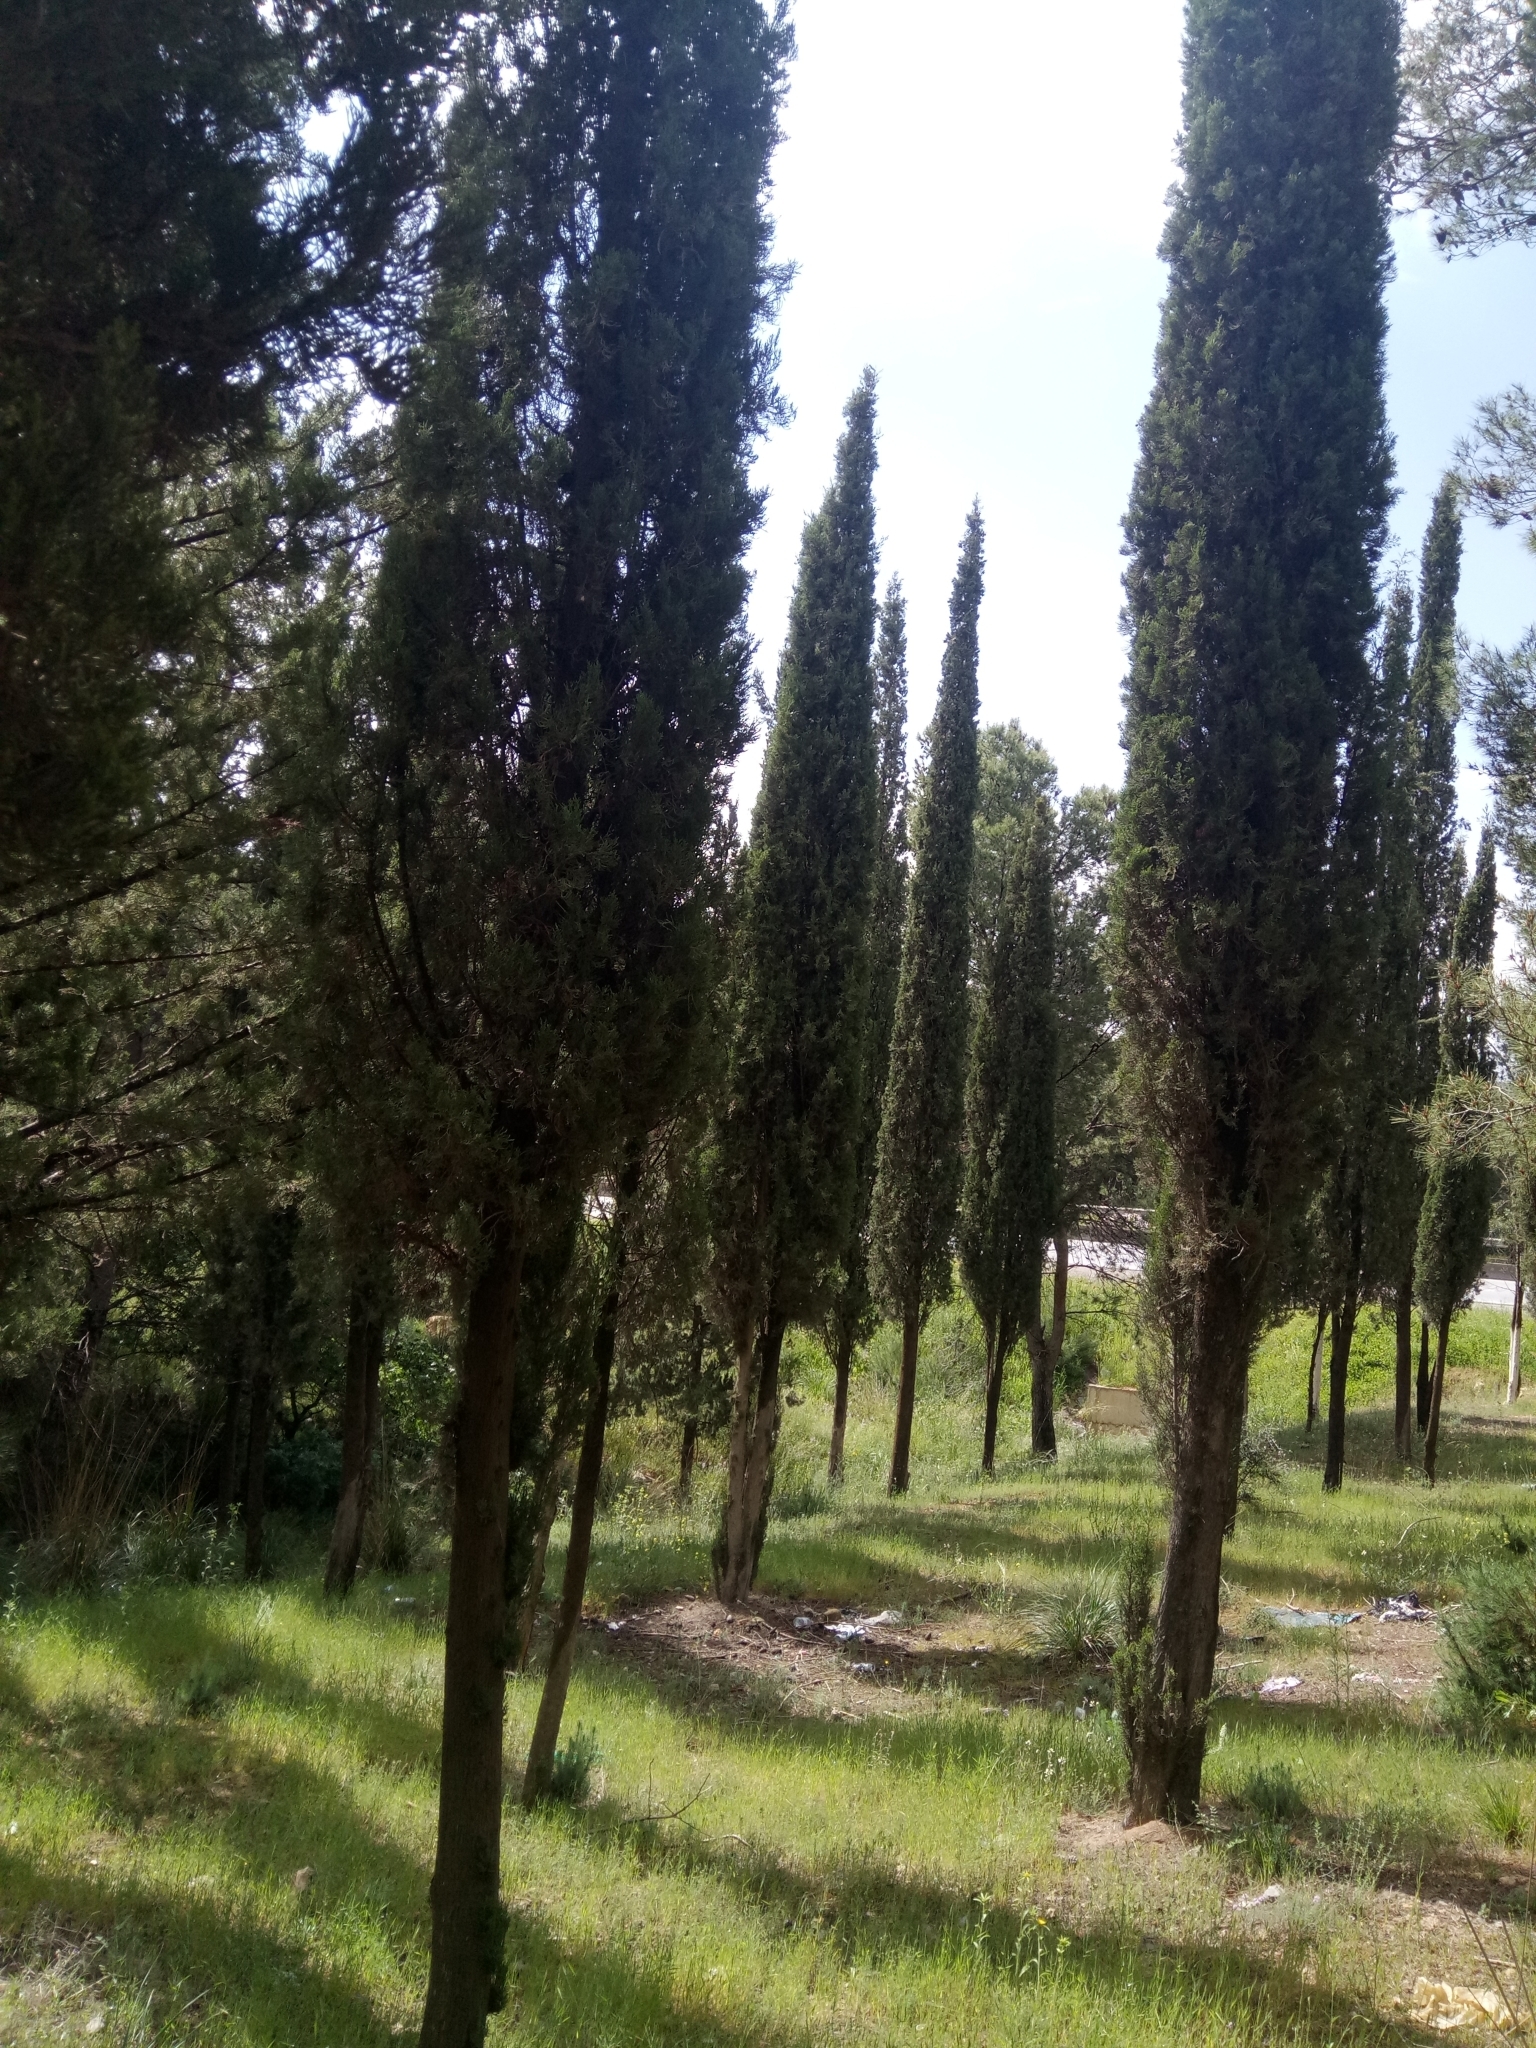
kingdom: Plantae
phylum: Tracheophyta
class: Pinopsida
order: Pinales
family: Cupressaceae
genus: Cupressus
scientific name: Cupressus sempervirens
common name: Italian cypress
